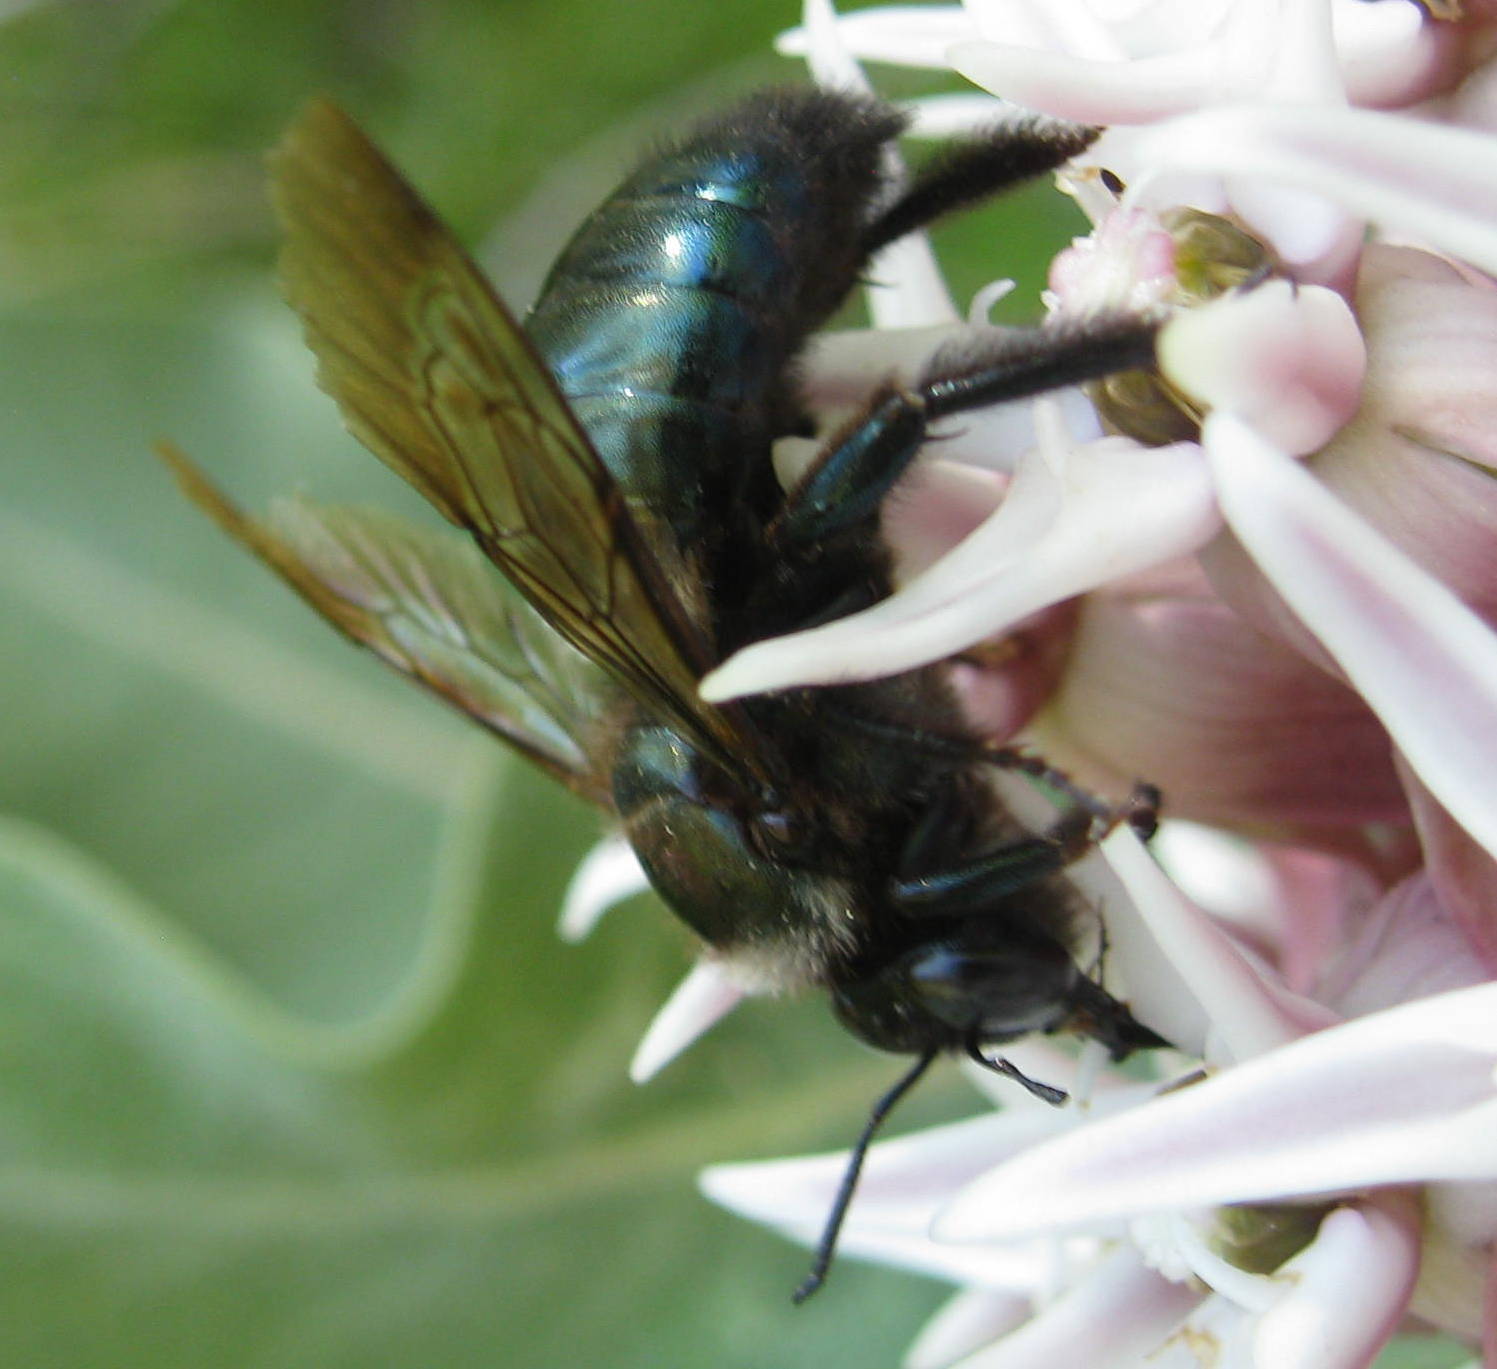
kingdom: Animalia
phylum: Arthropoda
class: Insecta
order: Hymenoptera
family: Apidae
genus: Xylocopa
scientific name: Xylocopa californica
